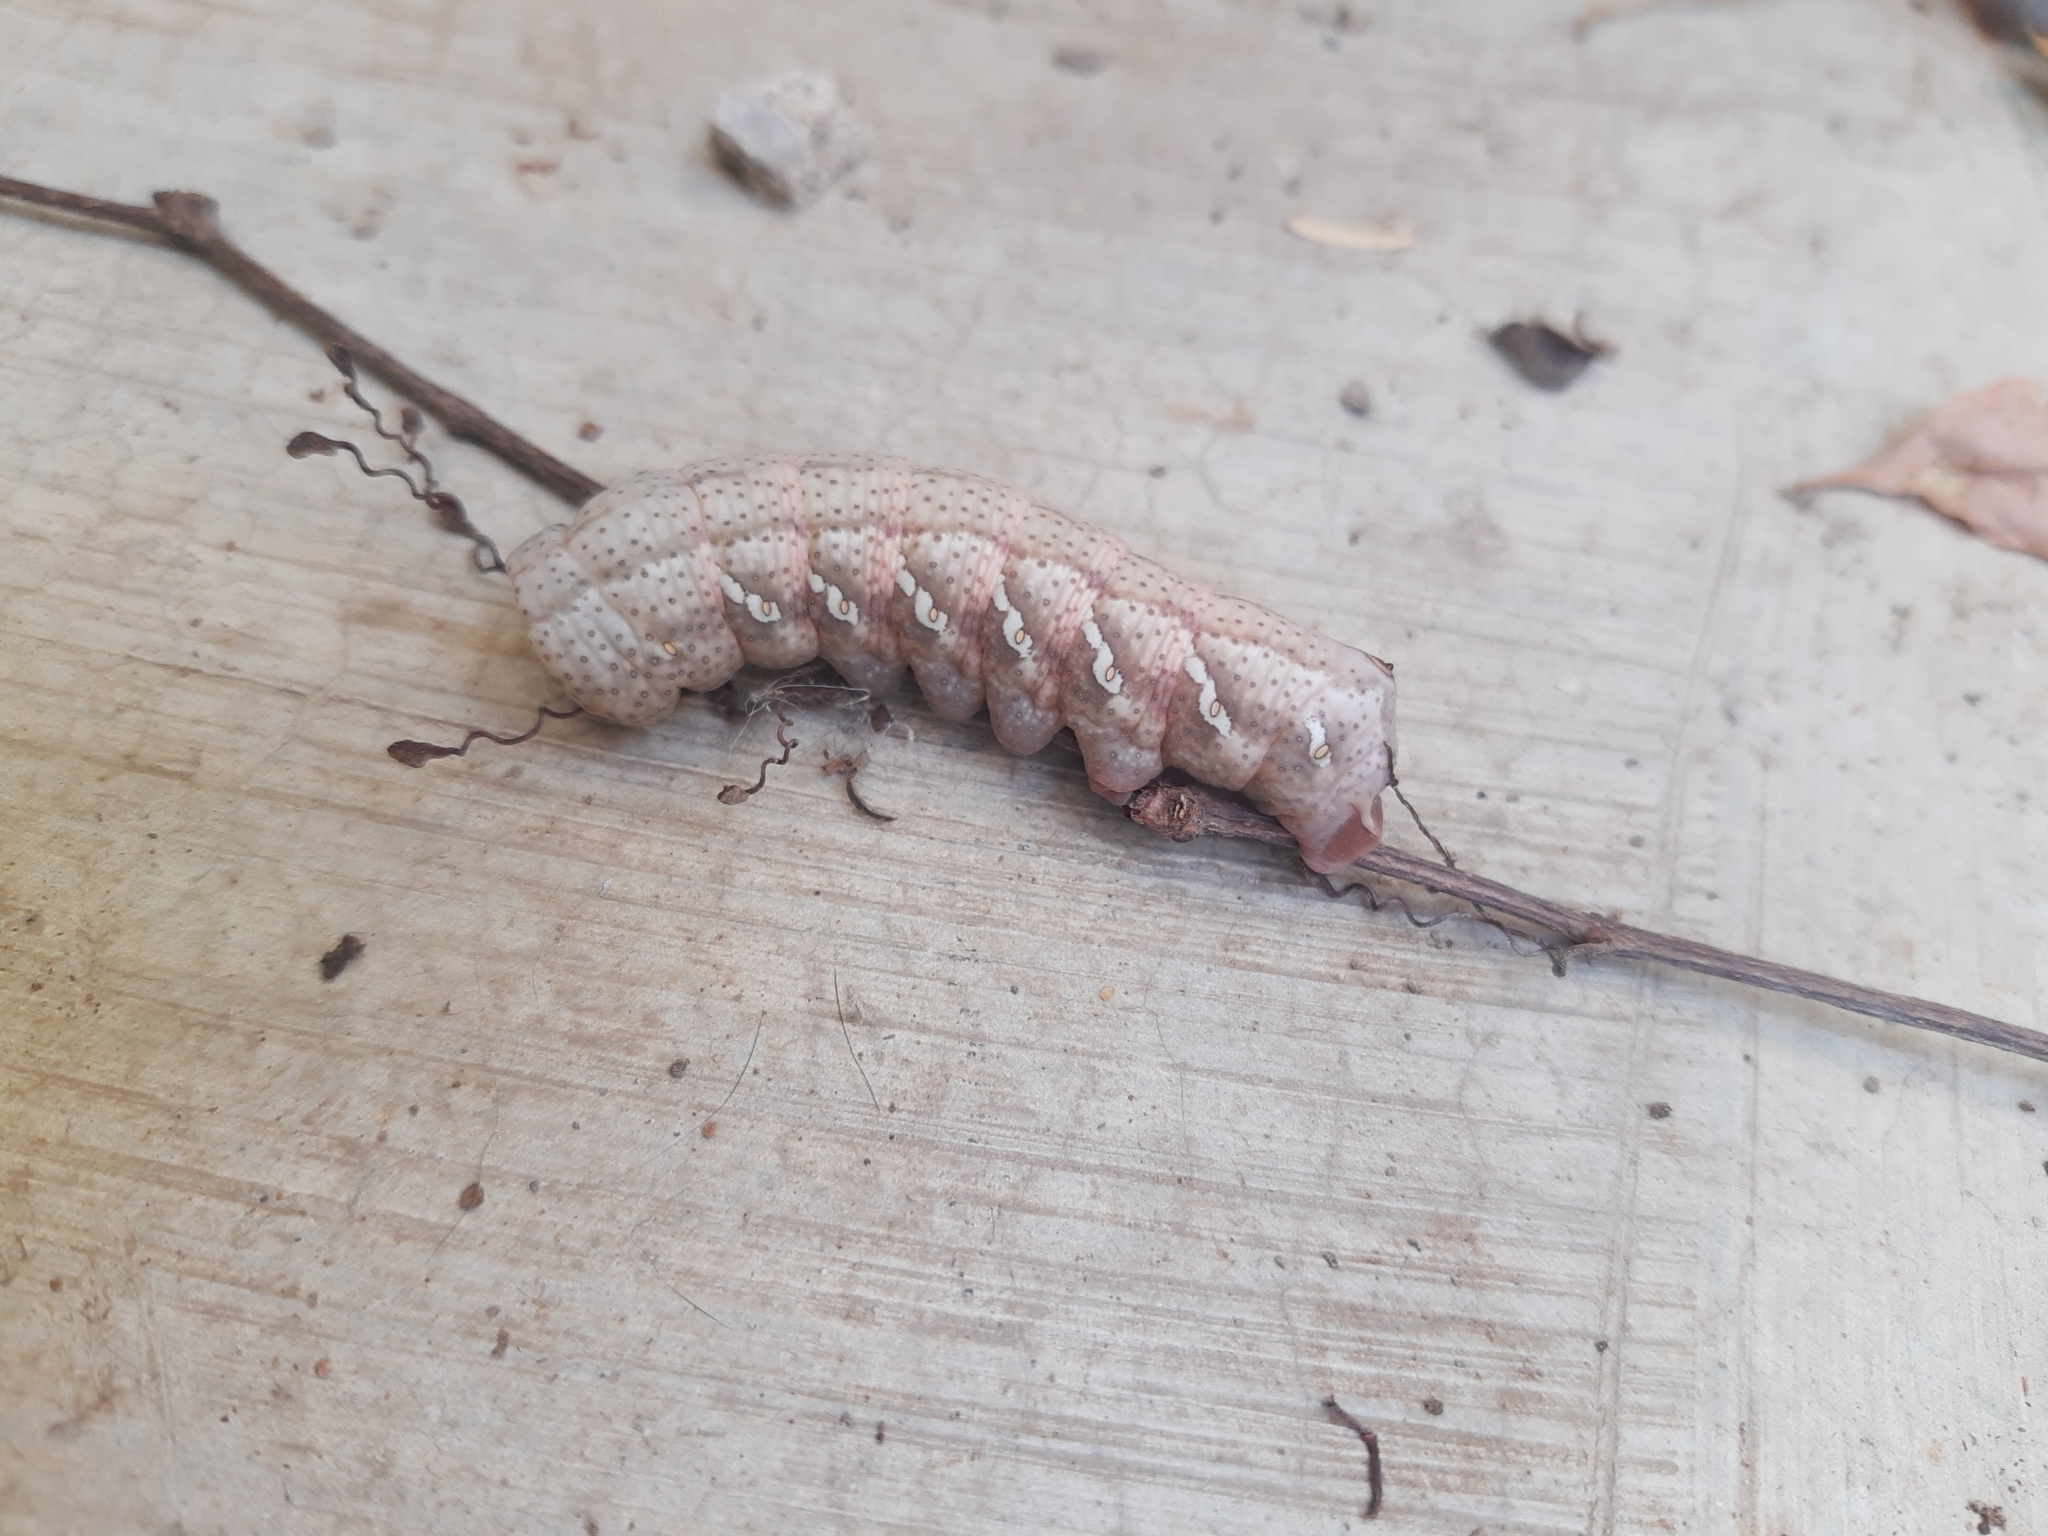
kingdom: Animalia
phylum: Arthropoda
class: Insecta
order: Lepidoptera
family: Sphingidae
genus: Eumorpha
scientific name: Eumorpha achemon
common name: Achemon sphinx
